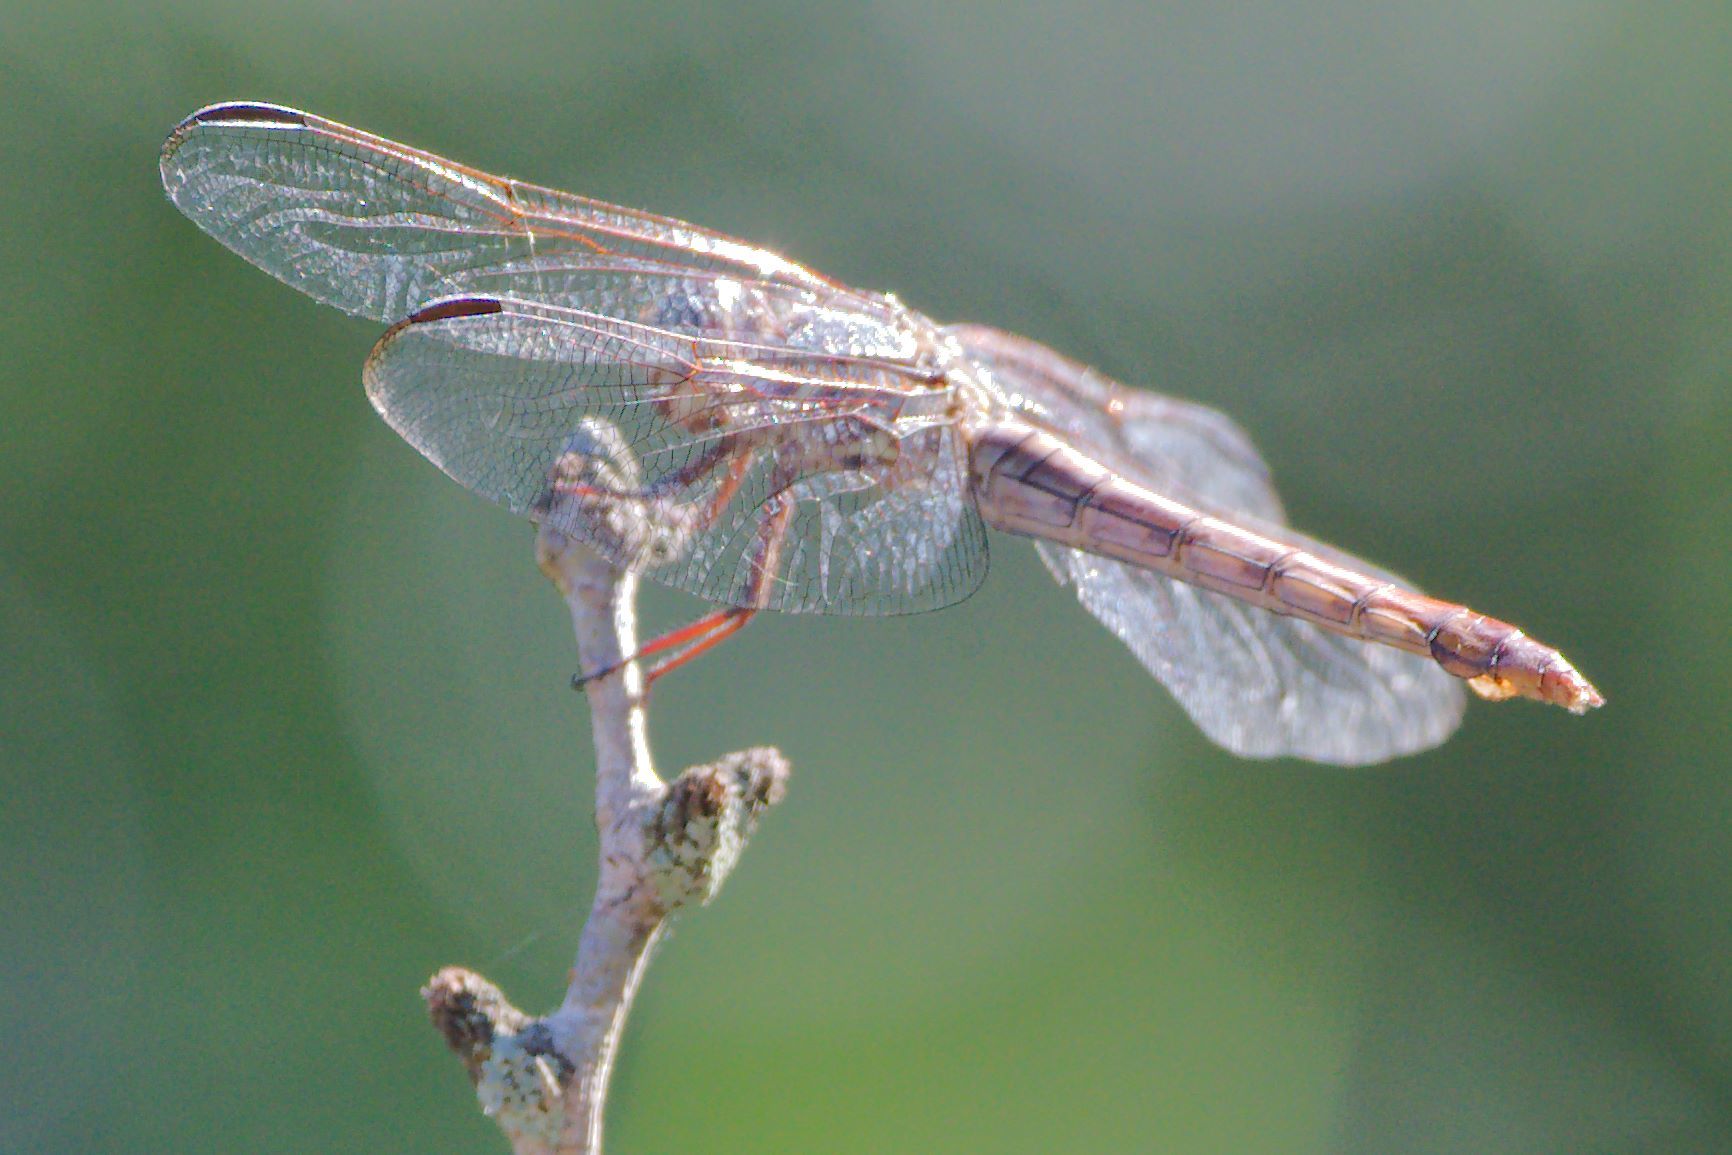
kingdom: Animalia
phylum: Arthropoda
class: Insecta
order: Odonata
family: Libellulidae
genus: Orthemis
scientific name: Orthemis ferruginea
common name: Roseate skimmer
